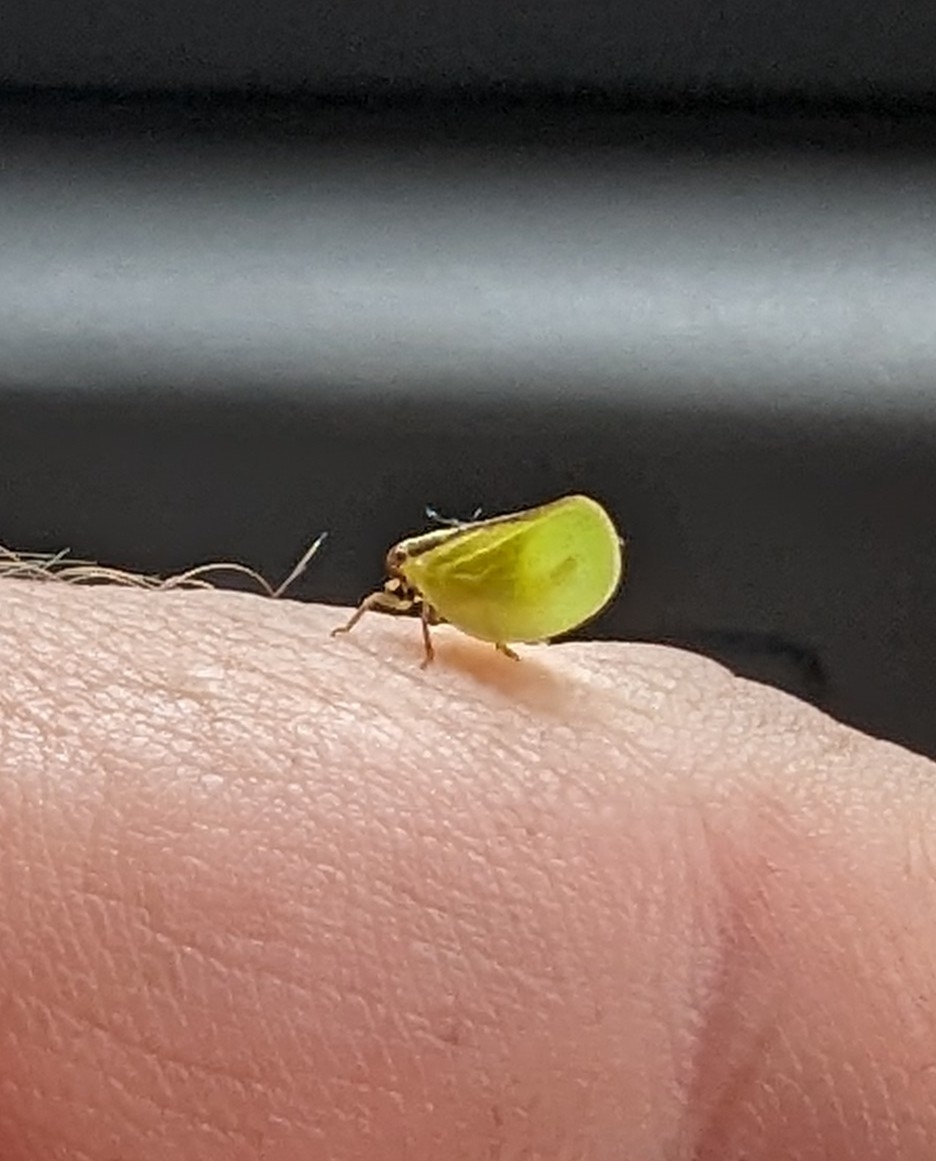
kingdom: Animalia
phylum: Arthropoda
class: Insecta
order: Hemiptera
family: Acanaloniidae
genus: Acanalonia
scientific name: Acanalonia bivittata
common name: Two-striped planthopper
